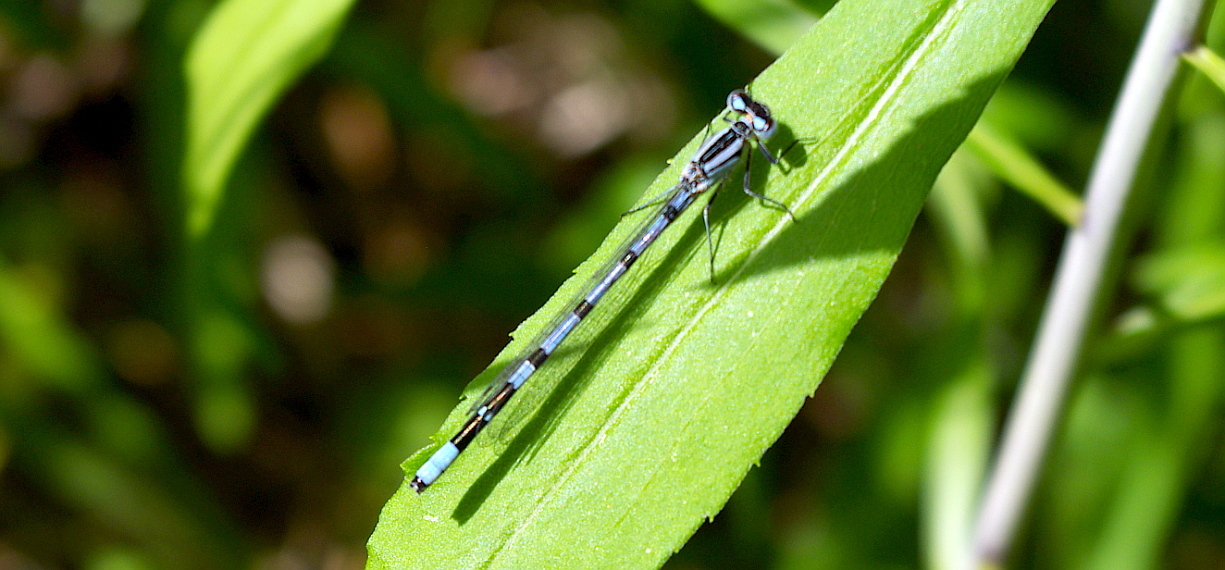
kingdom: Animalia
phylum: Arthropoda
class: Insecta
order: Odonata
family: Coenagrionidae
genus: Enallagma
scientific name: Enallagma cyathigerum
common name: Common blue damselfly
